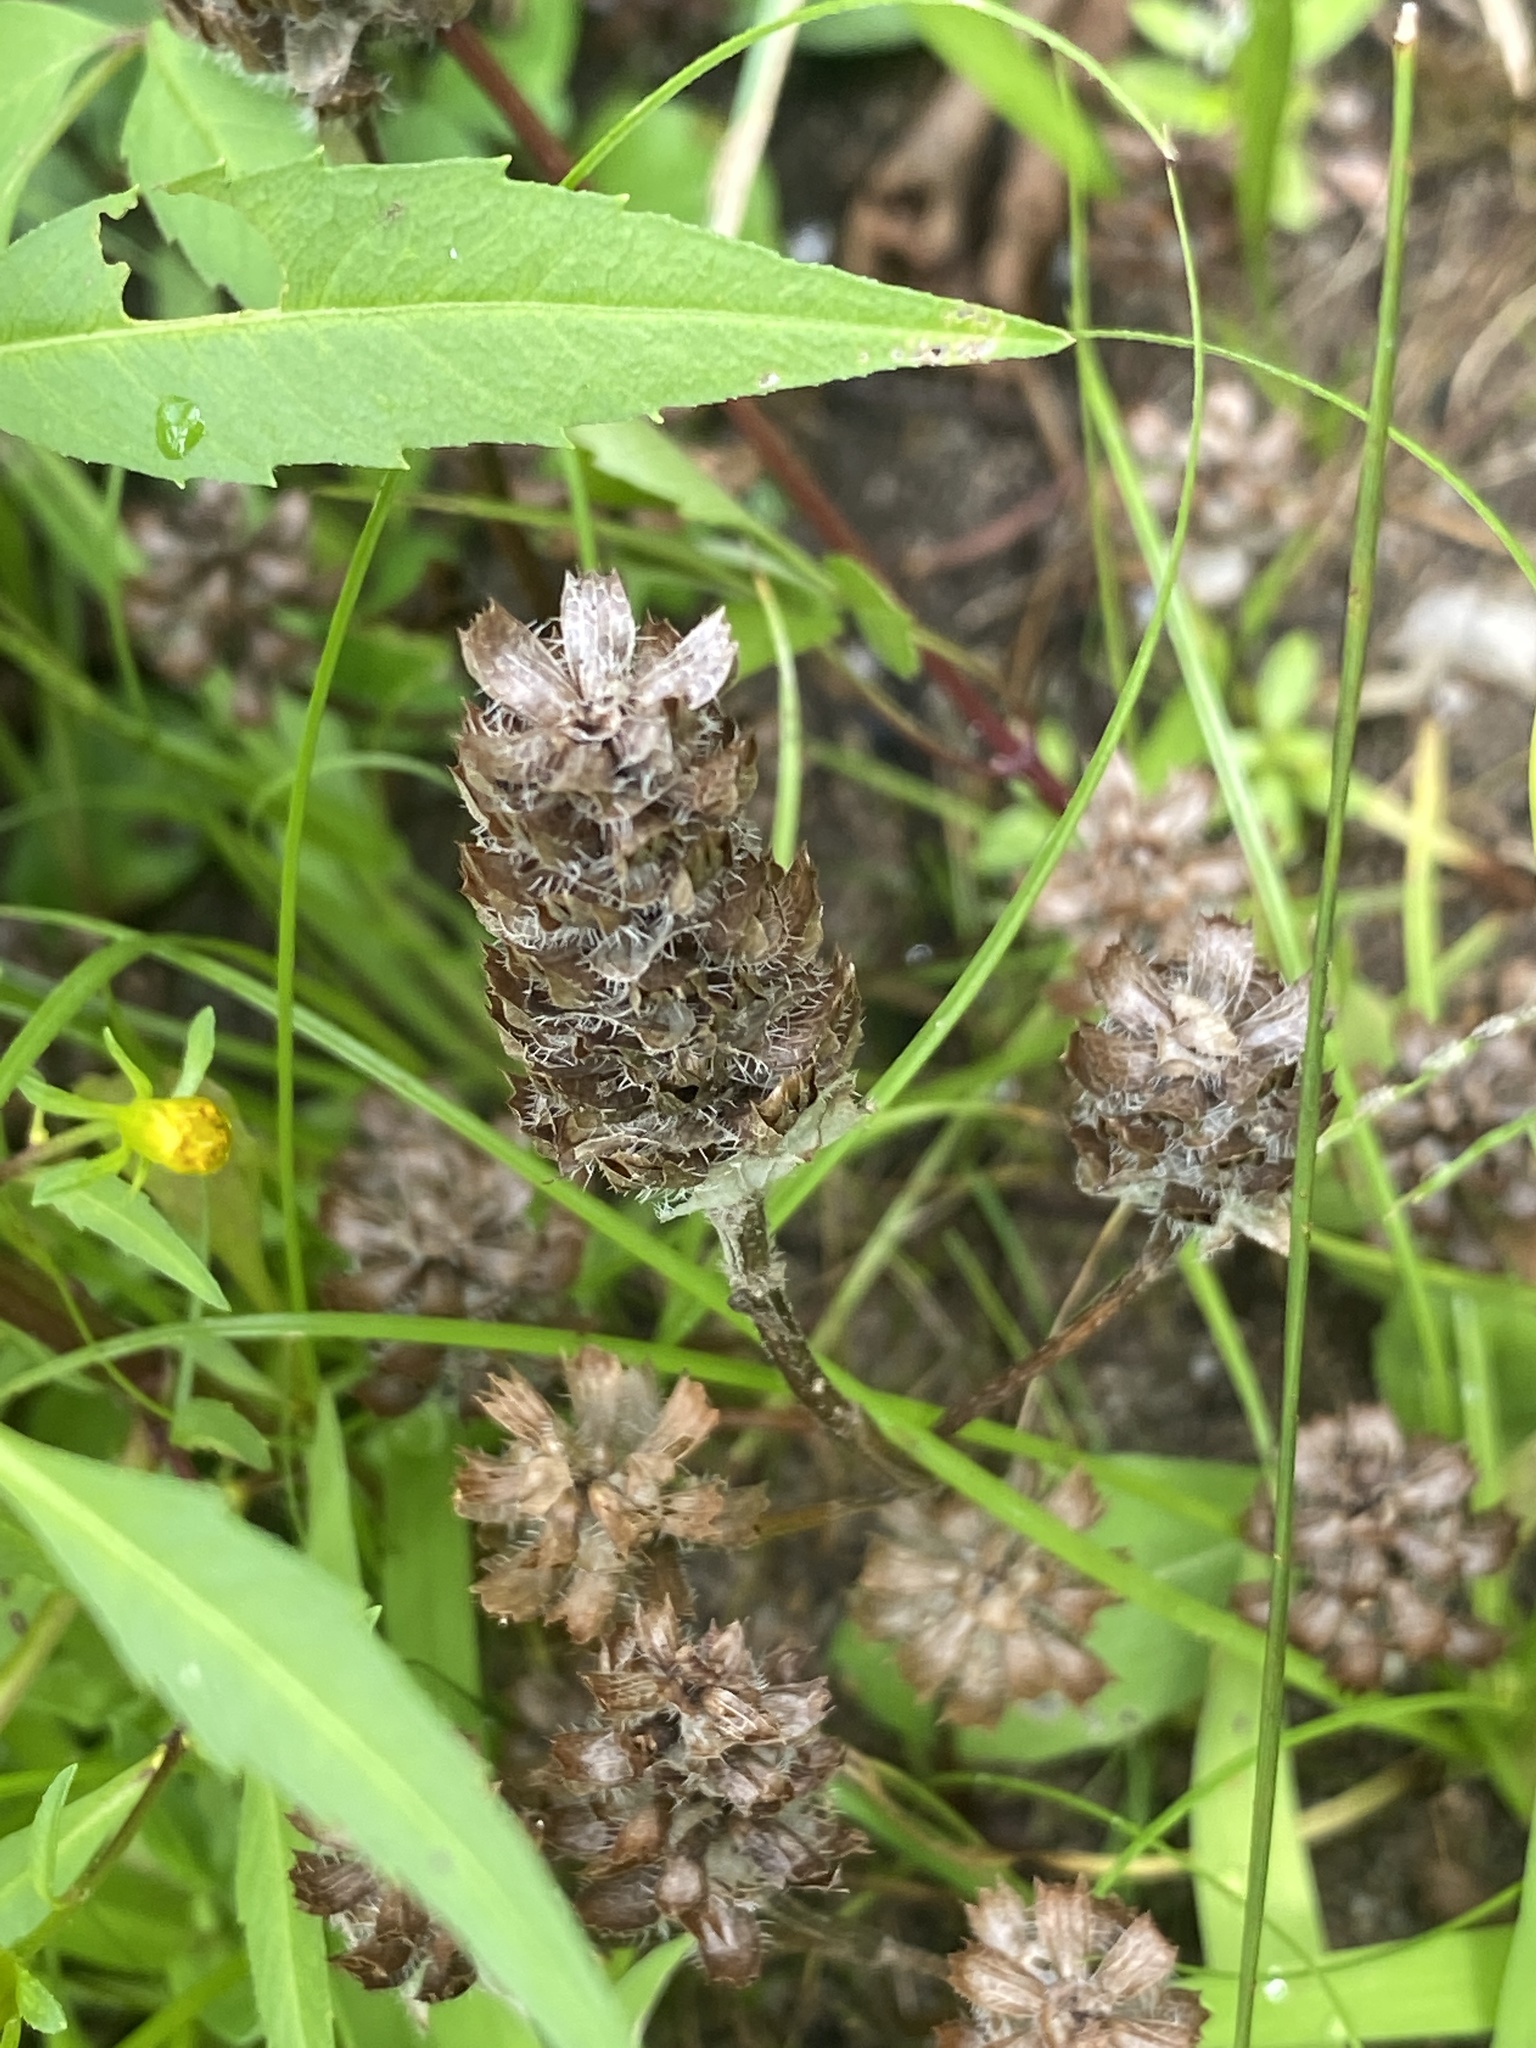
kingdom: Plantae
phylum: Tracheophyta
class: Magnoliopsida
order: Lamiales
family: Lamiaceae
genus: Prunella
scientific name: Prunella vulgaris
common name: Heal-all
